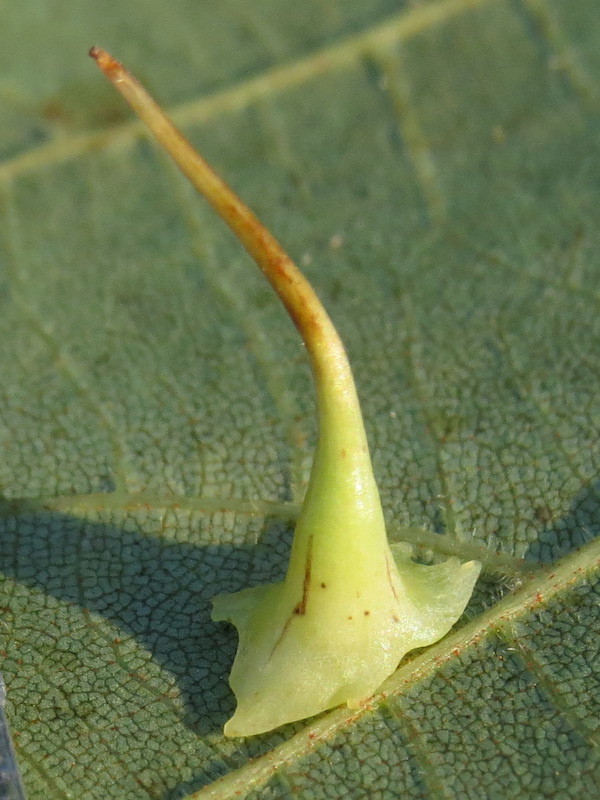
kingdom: Animalia
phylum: Arthropoda
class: Insecta
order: Diptera
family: Cecidomyiidae
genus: Caryomyia
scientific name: Caryomyia stellata
